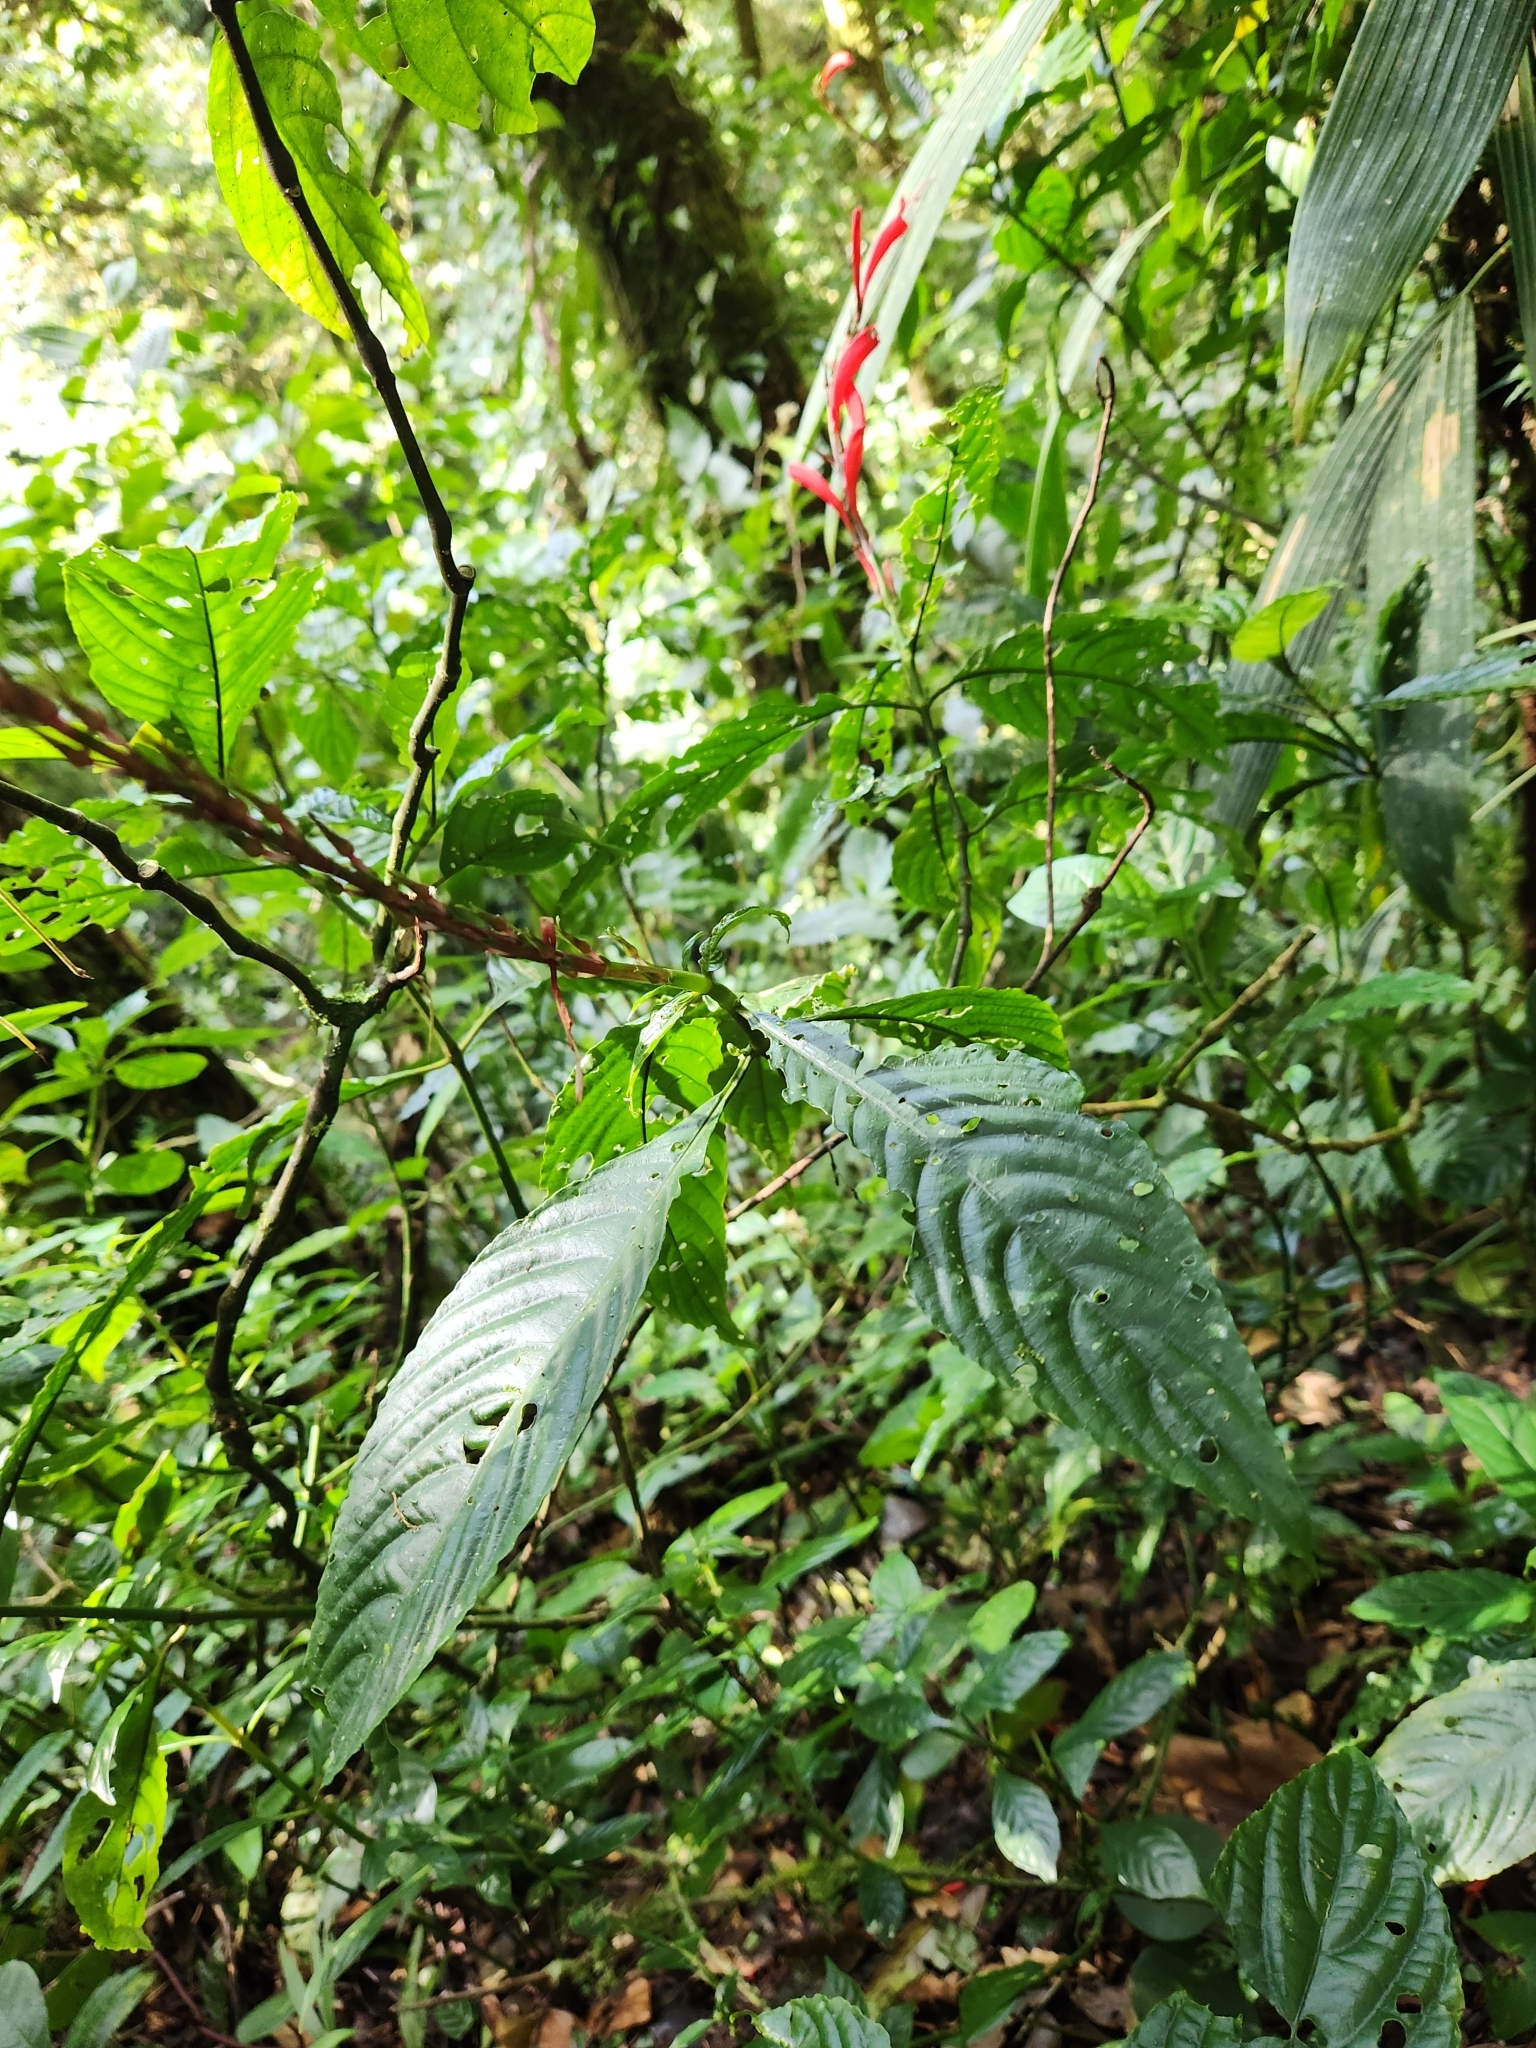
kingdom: Plantae
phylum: Tracheophyta
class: Magnoliopsida
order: Lamiales
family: Acanthaceae
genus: Stenostephanus
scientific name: Stenostephanus leiorhachis
